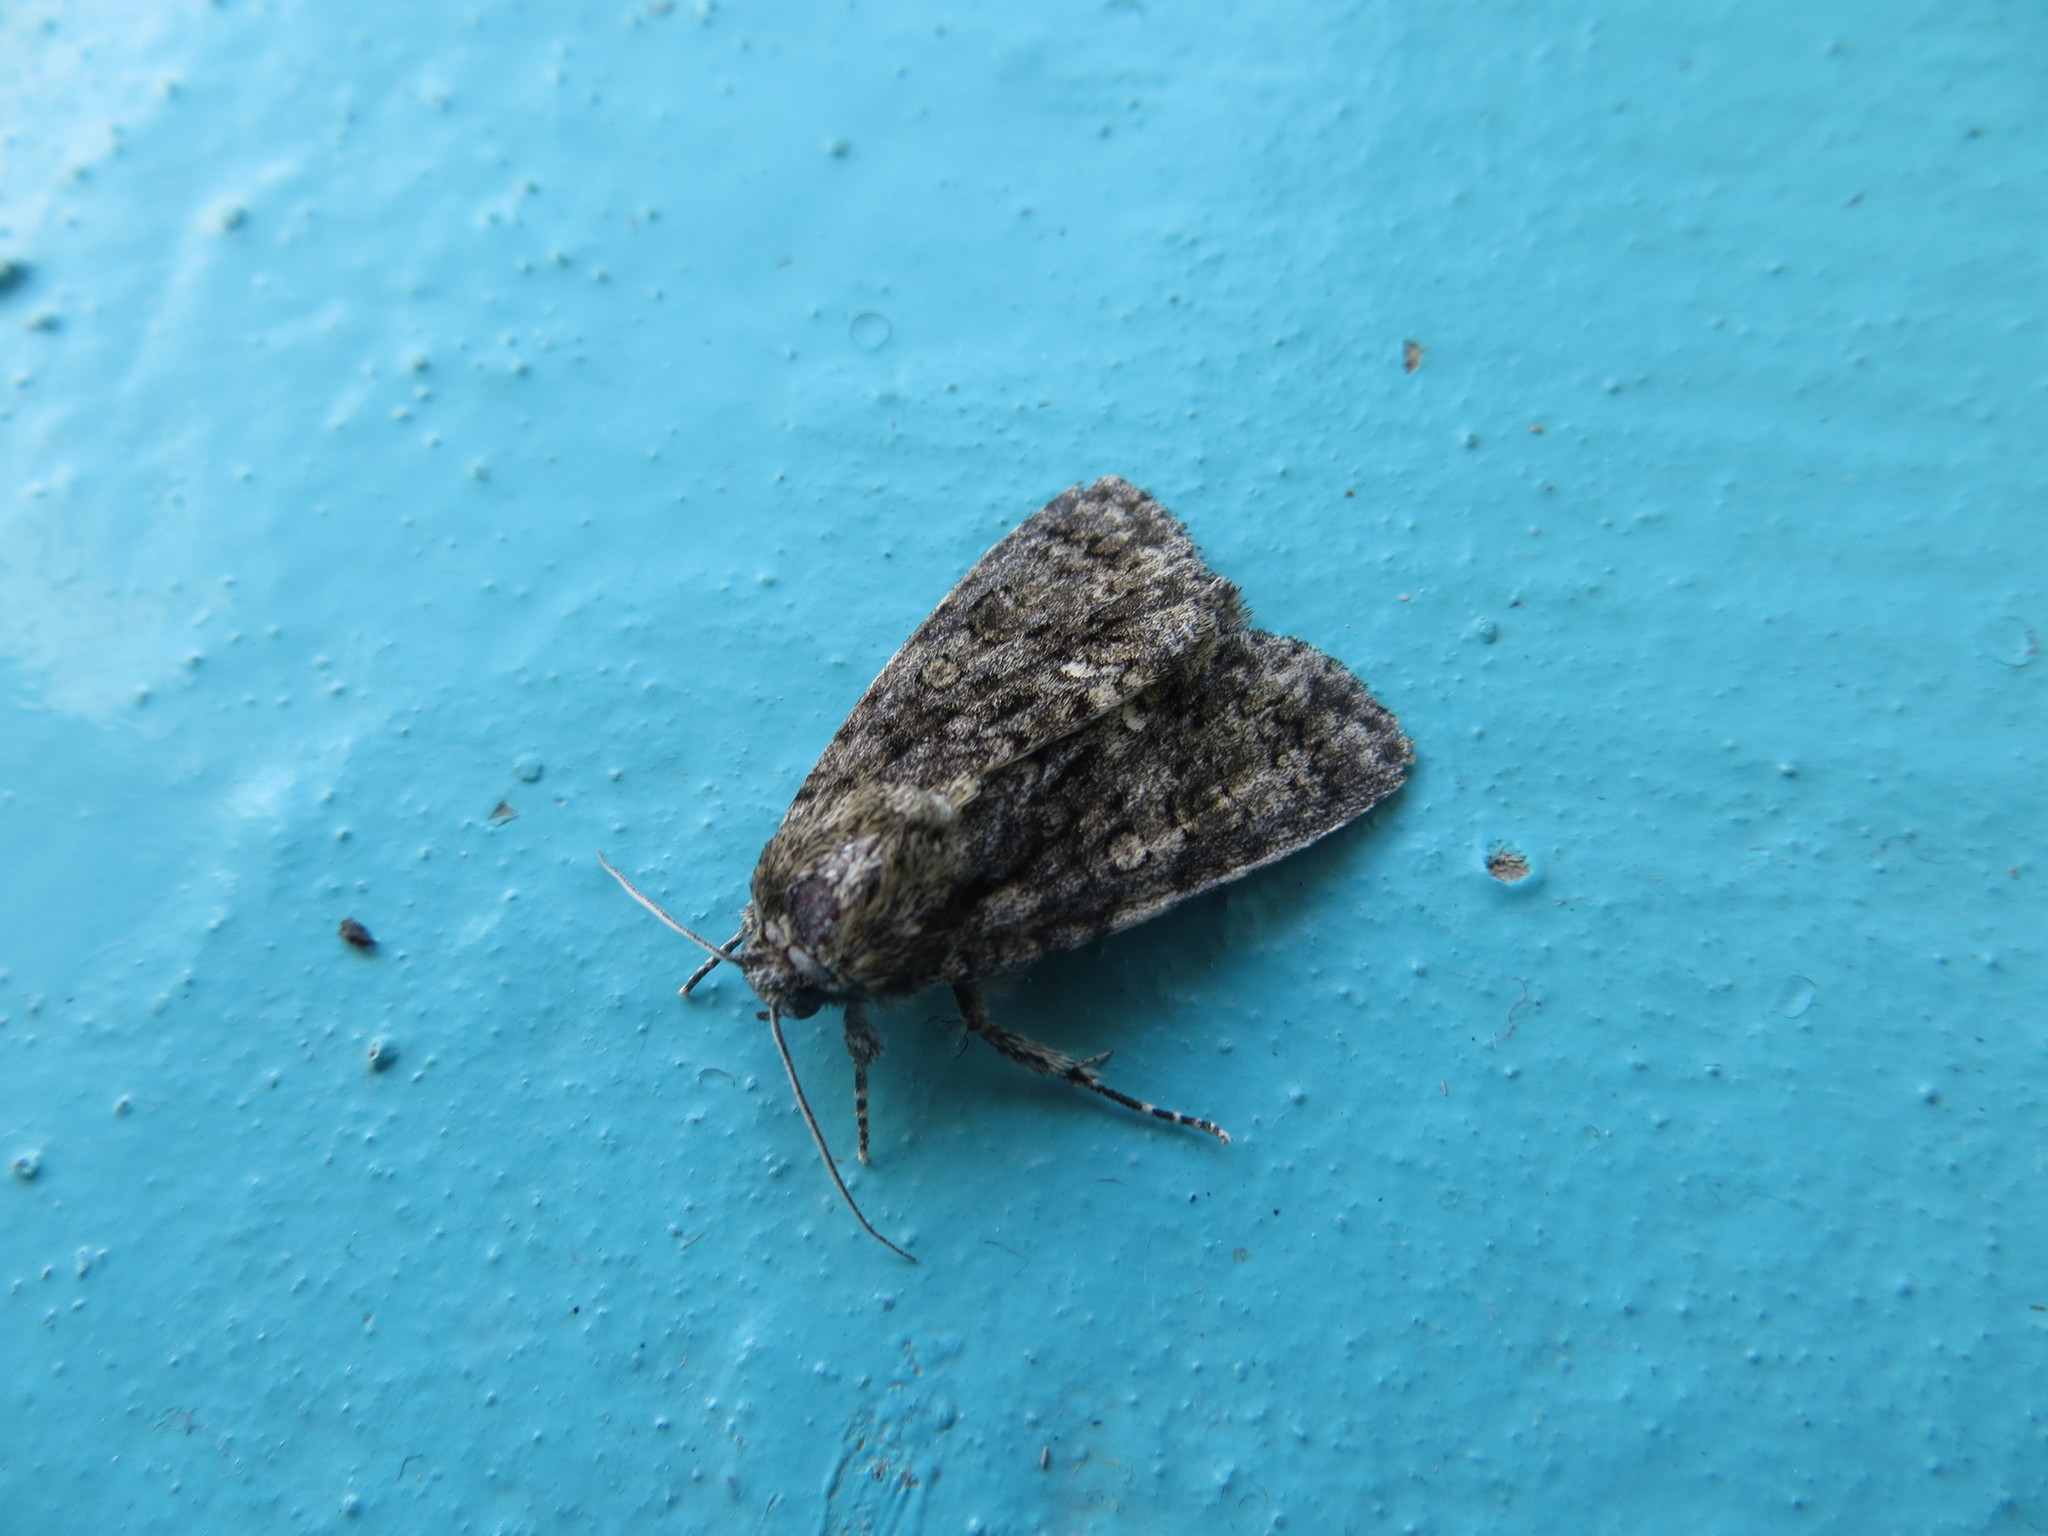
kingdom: Animalia
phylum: Arthropoda
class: Insecta
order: Lepidoptera
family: Noctuidae
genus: Acronicta
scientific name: Acronicta rumicis
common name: Knot grass
